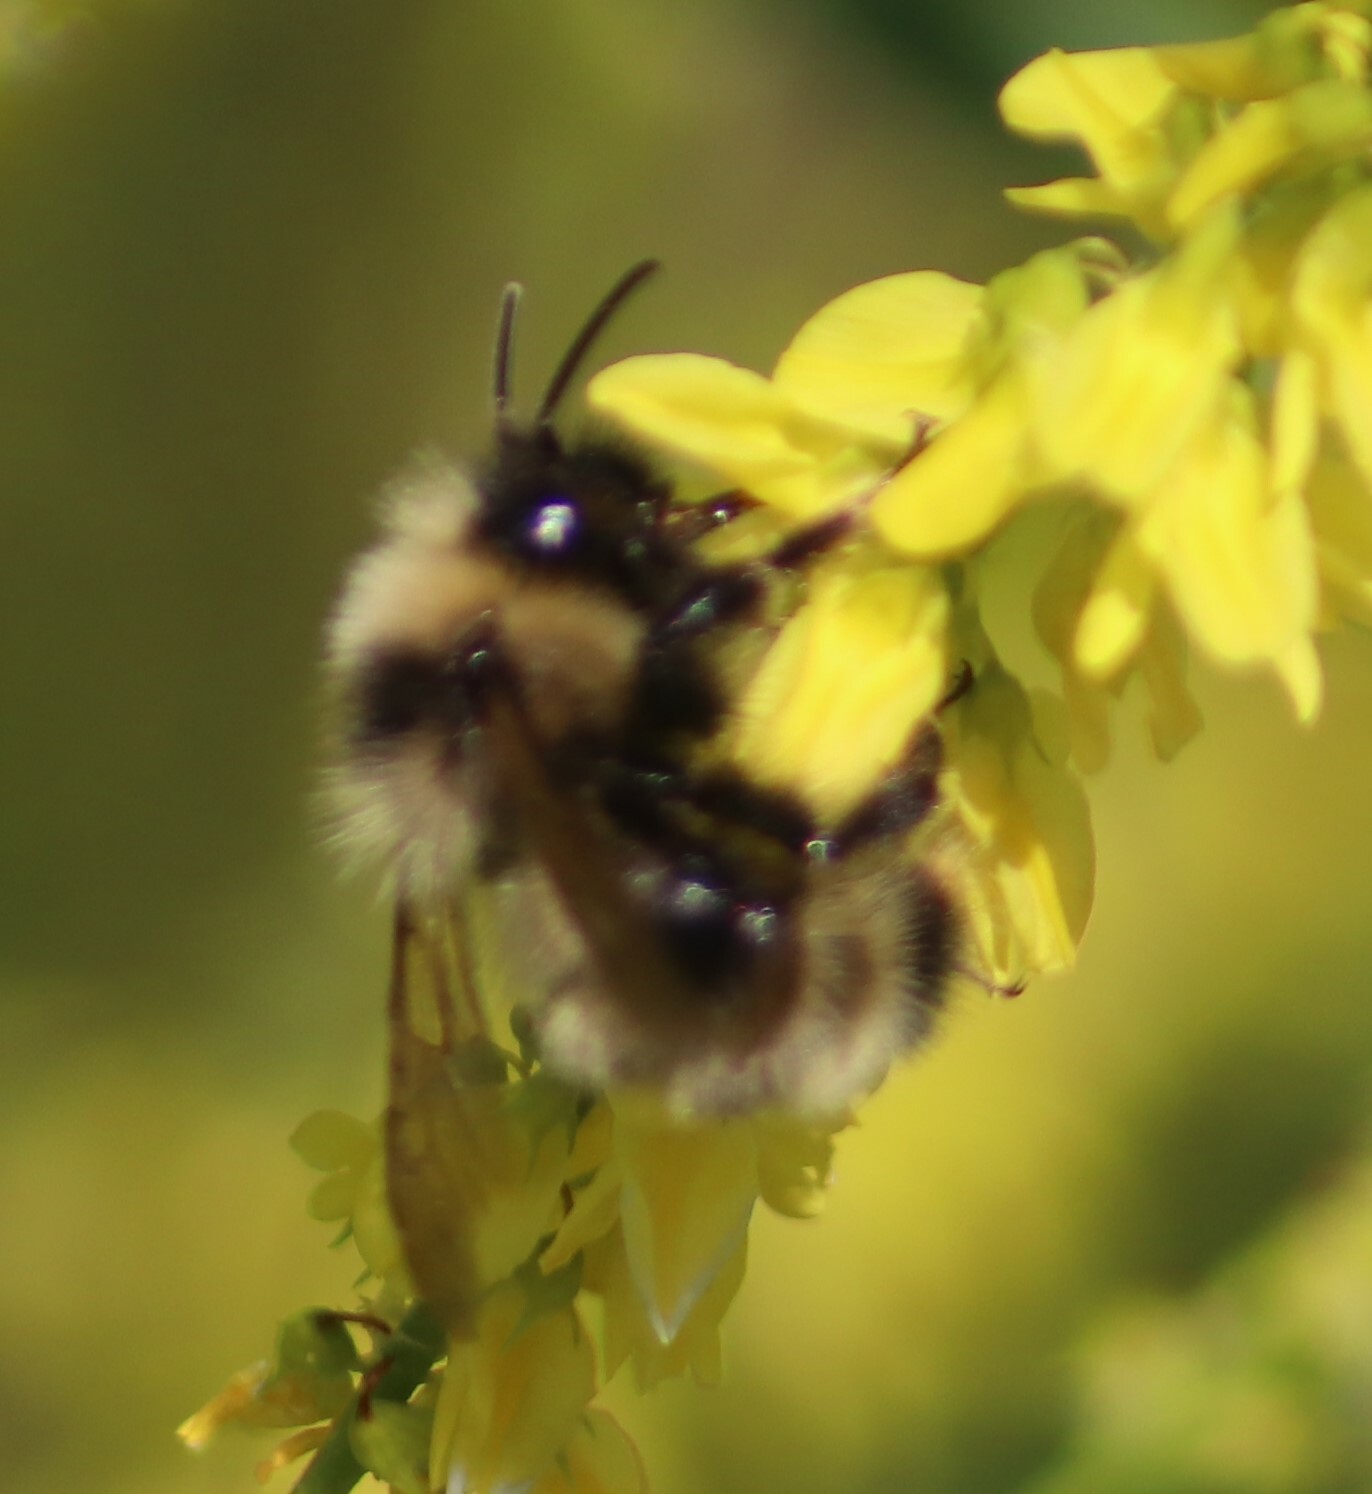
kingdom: Animalia
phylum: Arthropoda
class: Insecta
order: Hymenoptera
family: Apidae
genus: Bombus
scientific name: Bombus flavidus
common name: Fernald cuckoo bumble bee
